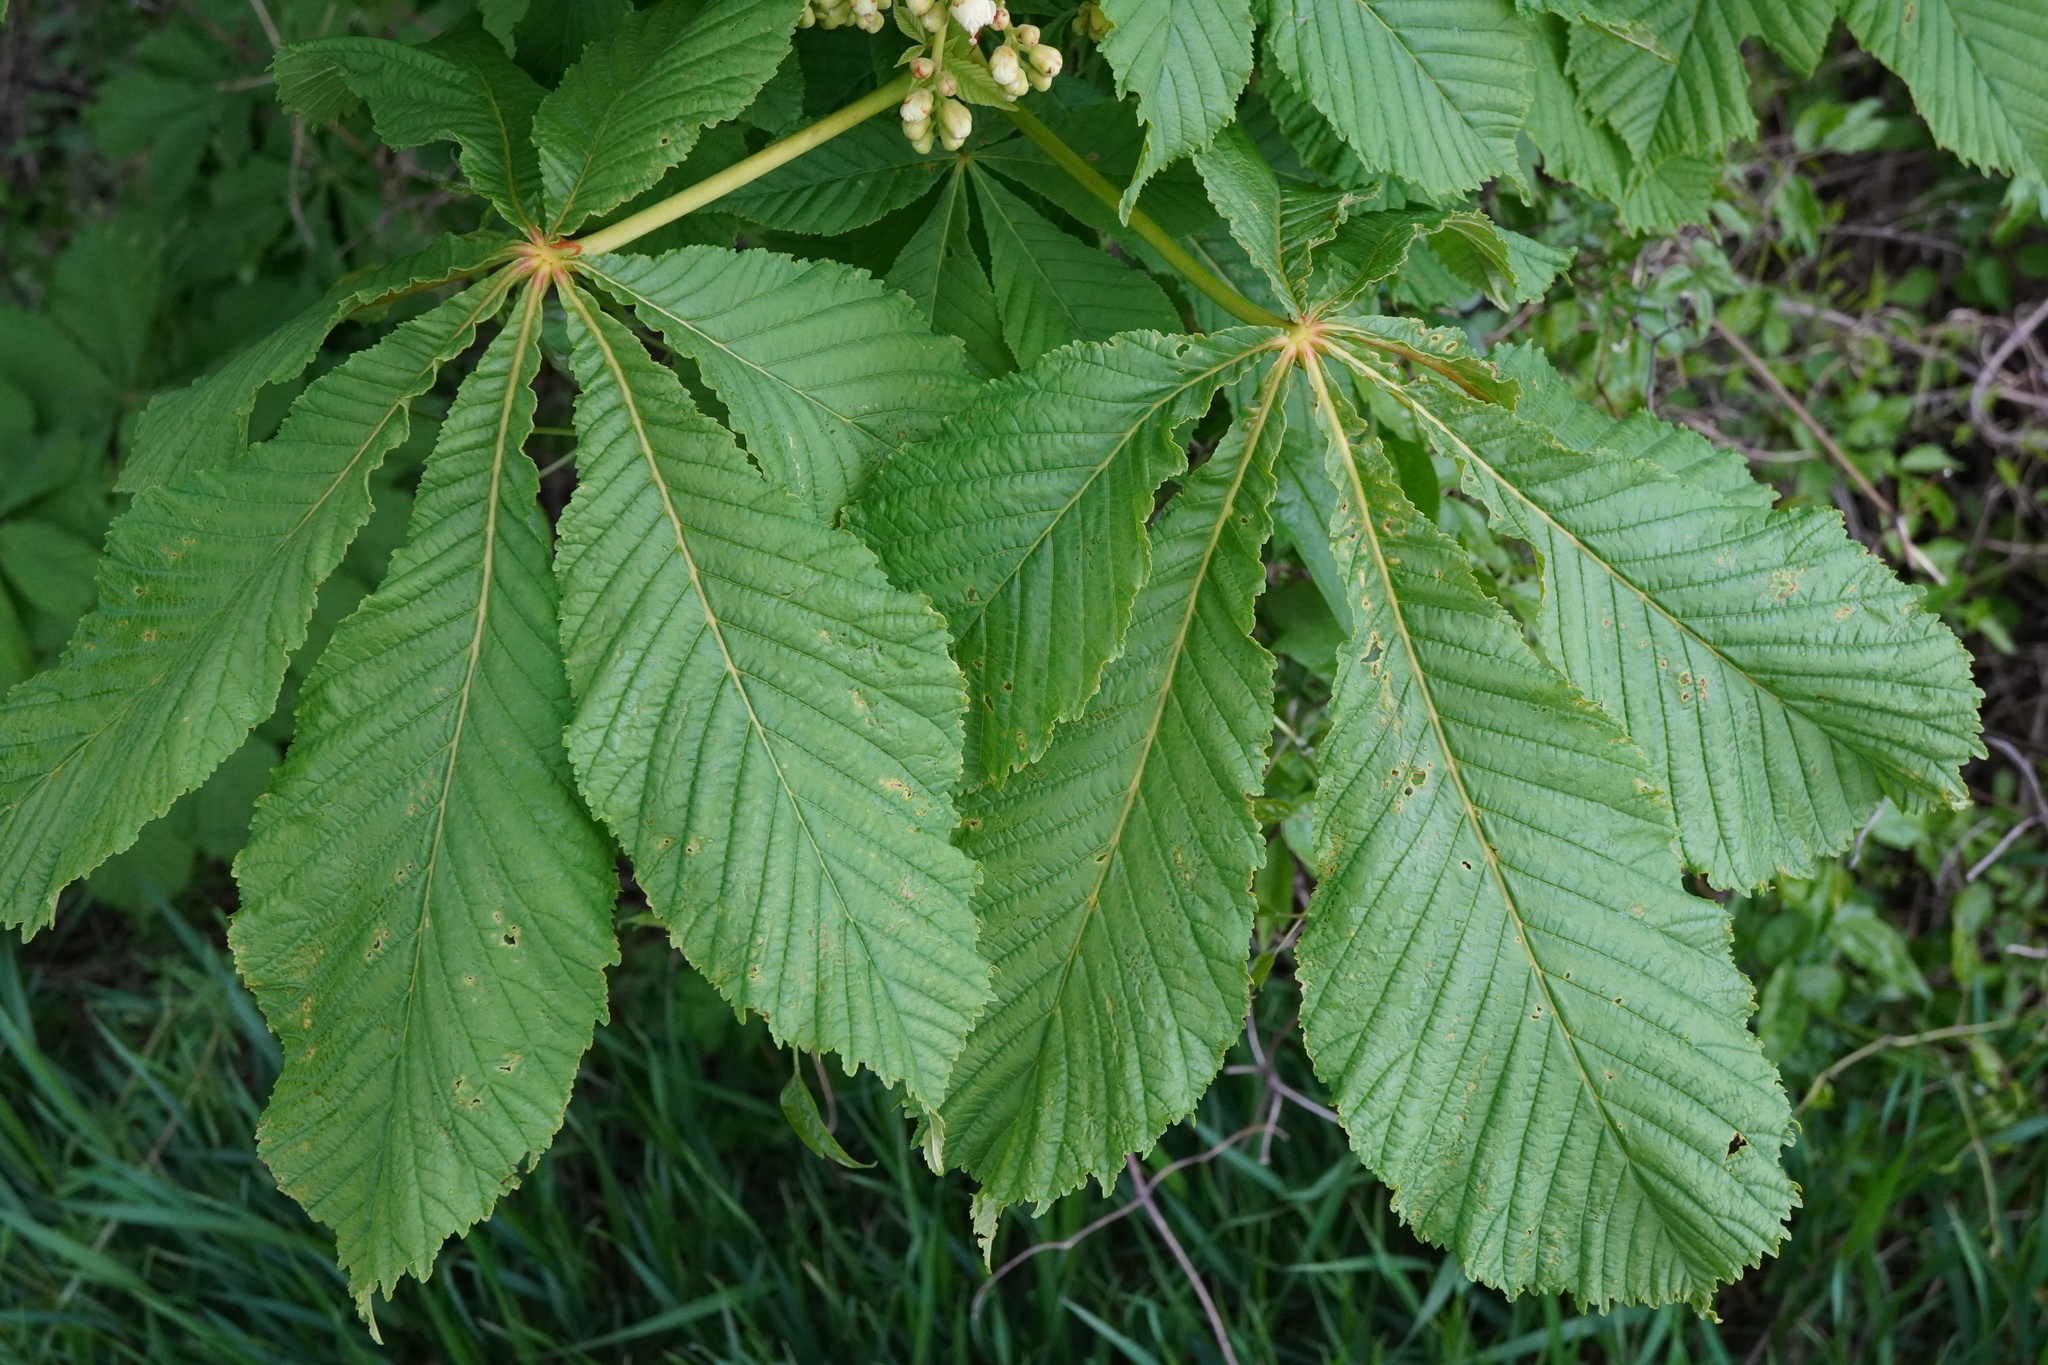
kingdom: Plantae
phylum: Tracheophyta
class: Magnoliopsida
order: Sapindales
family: Sapindaceae
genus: Aesculus
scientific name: Aesculus hippocastanum
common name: Horse-chestnut
